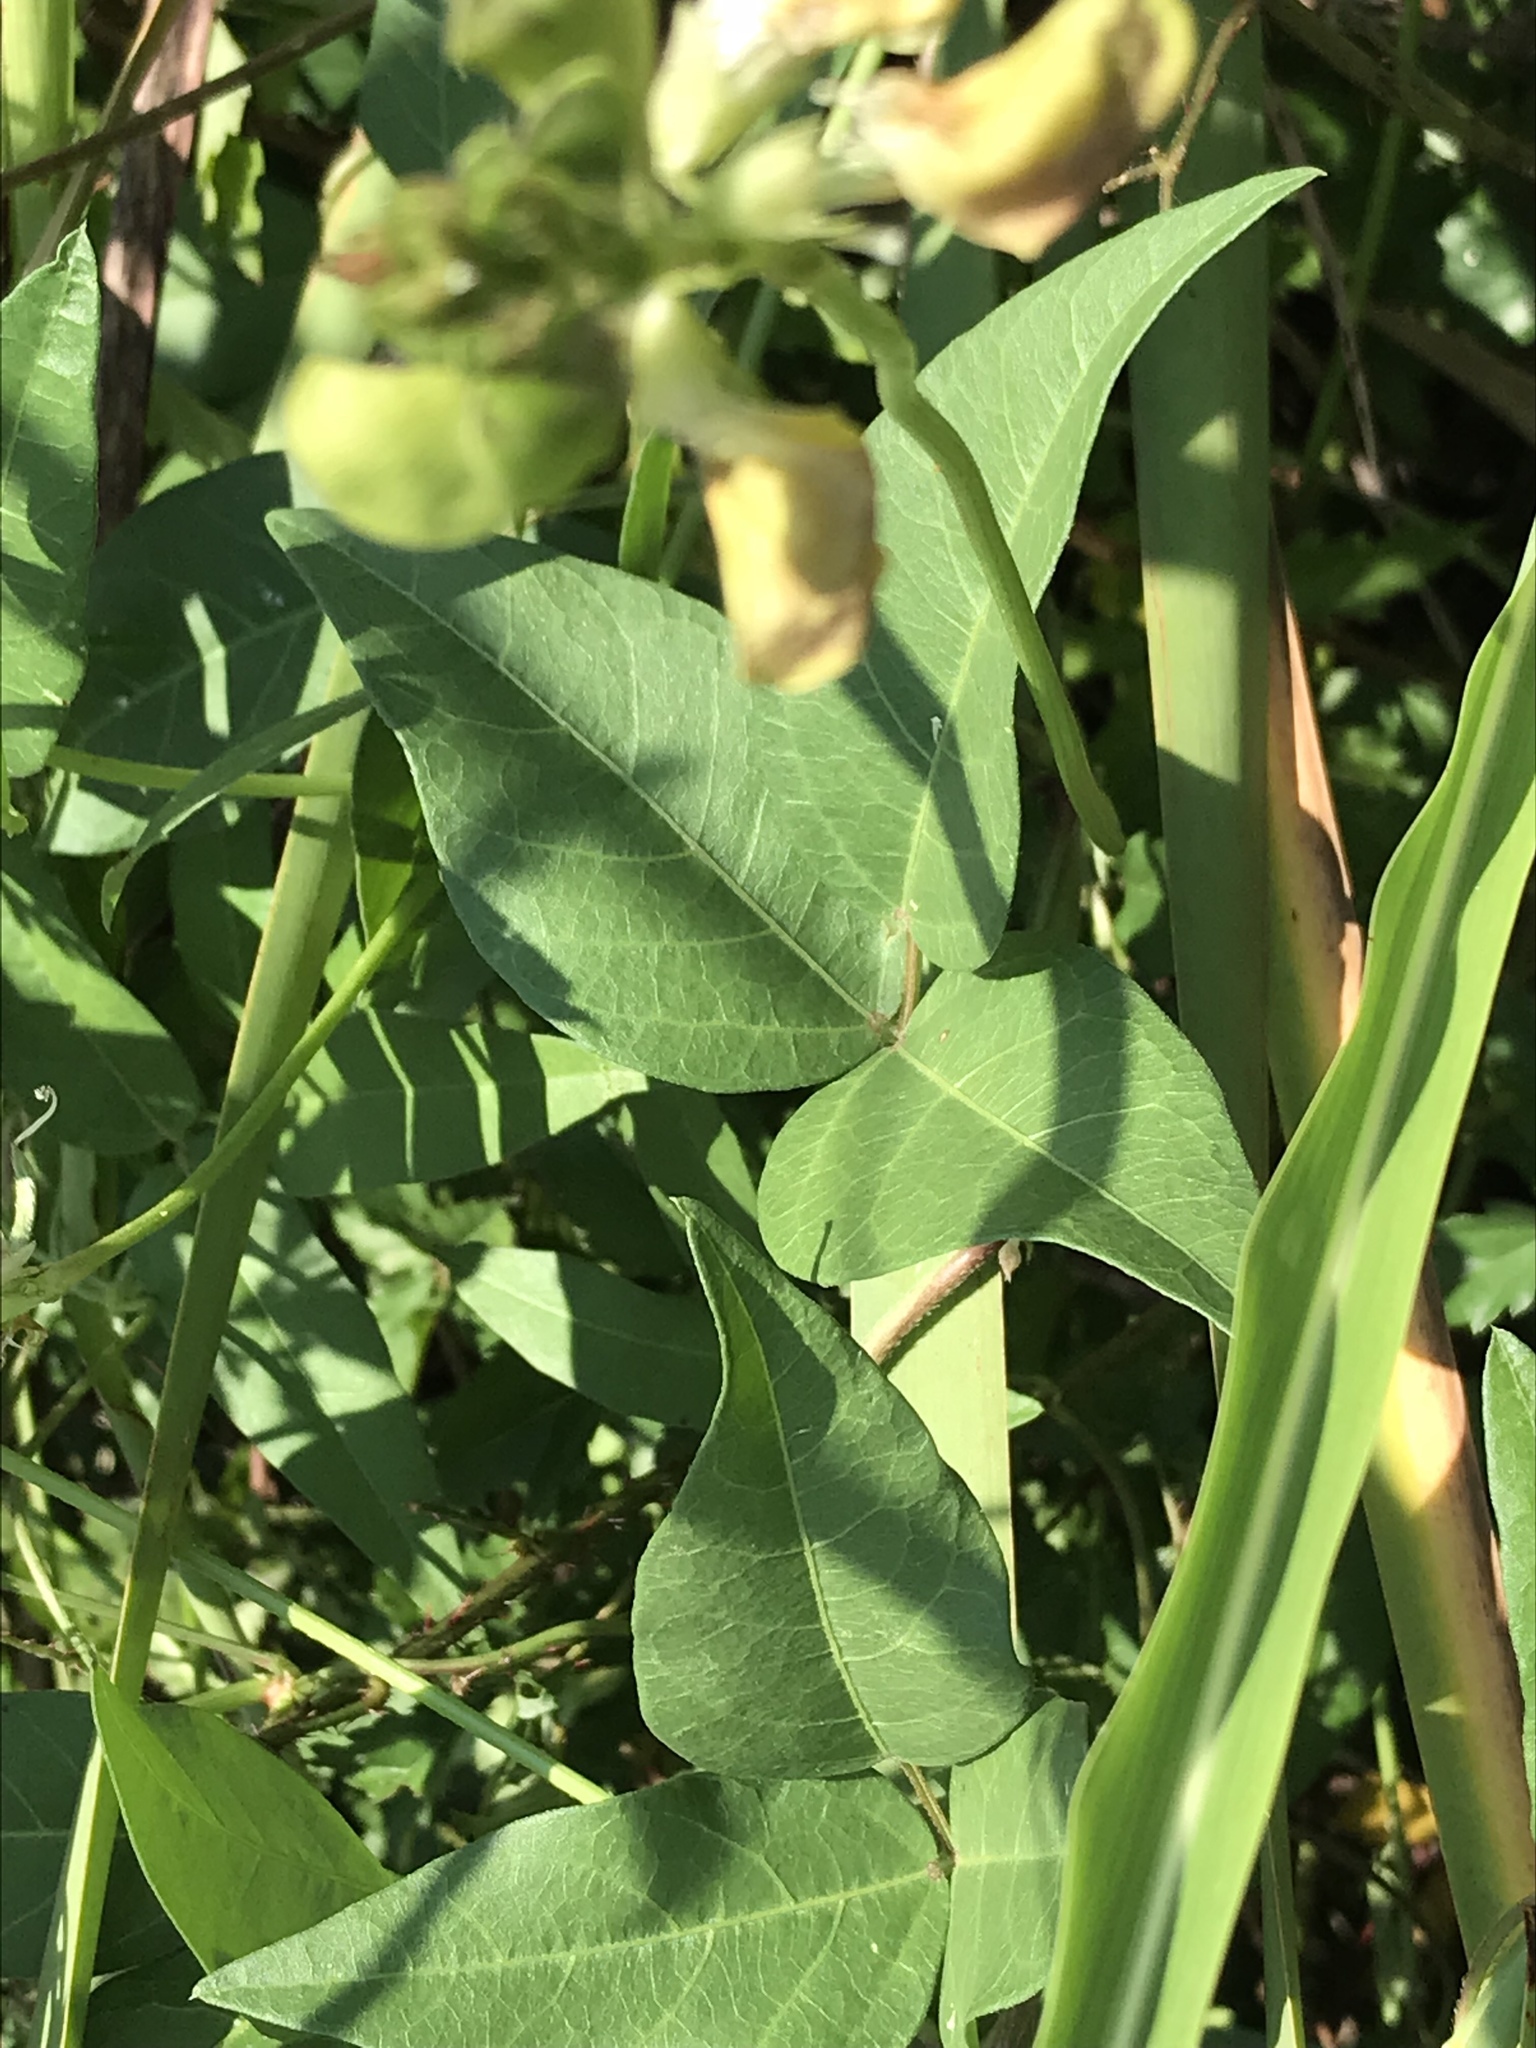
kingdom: Plantae
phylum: Tracheophyta
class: Magnoliopsida
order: Fabales
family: Fabaceae
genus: Vigna
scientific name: Vigna luteola
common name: Hairypod cowpea
